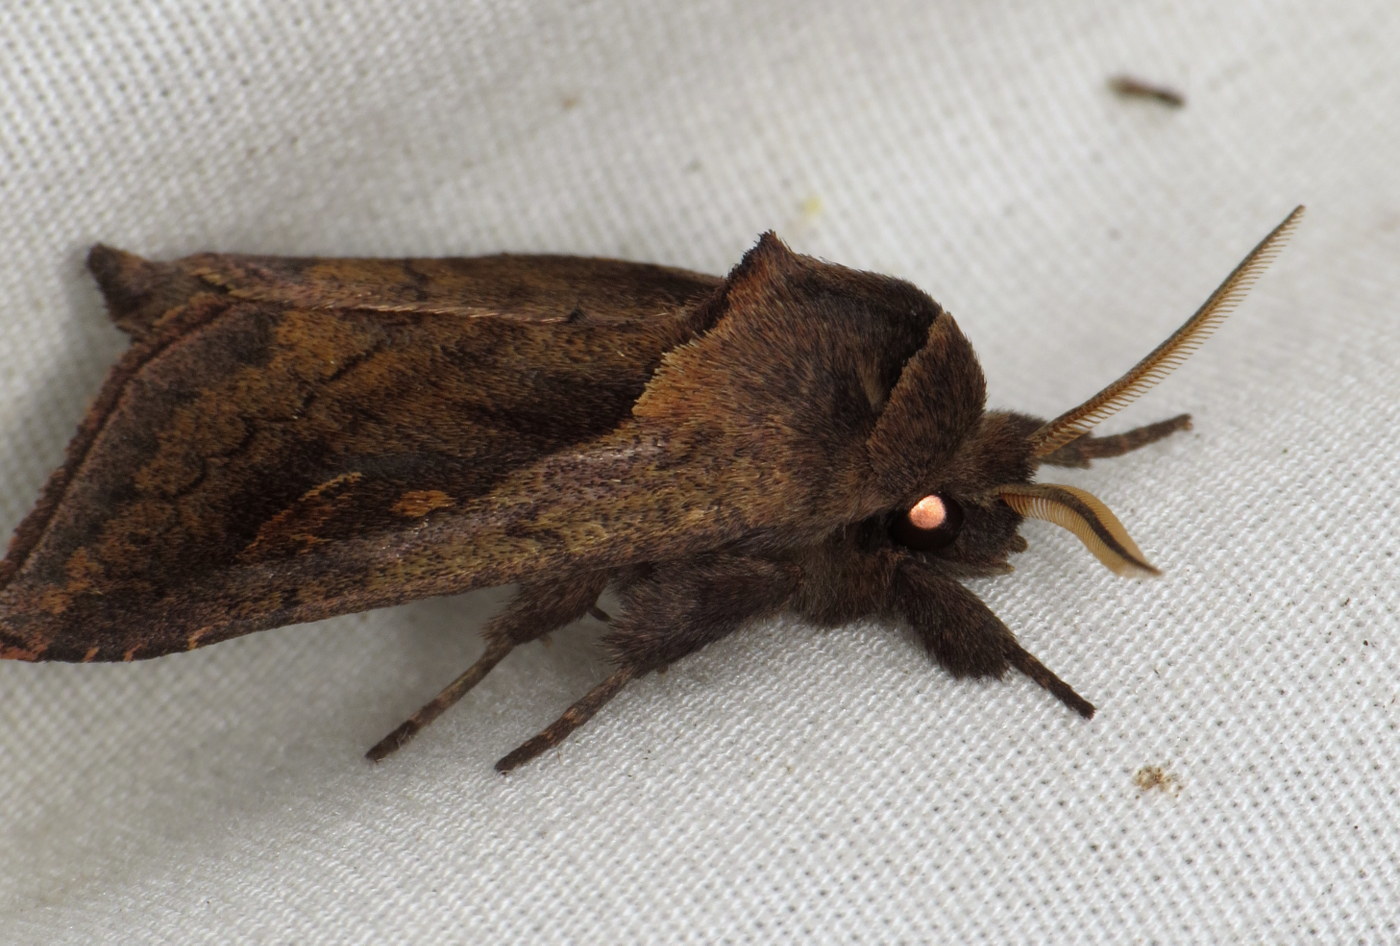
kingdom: Animalia
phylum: Arthropoda
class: Insecta
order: Lepidoptera
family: Noctuidae
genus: Bellura
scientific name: Bellura densa
